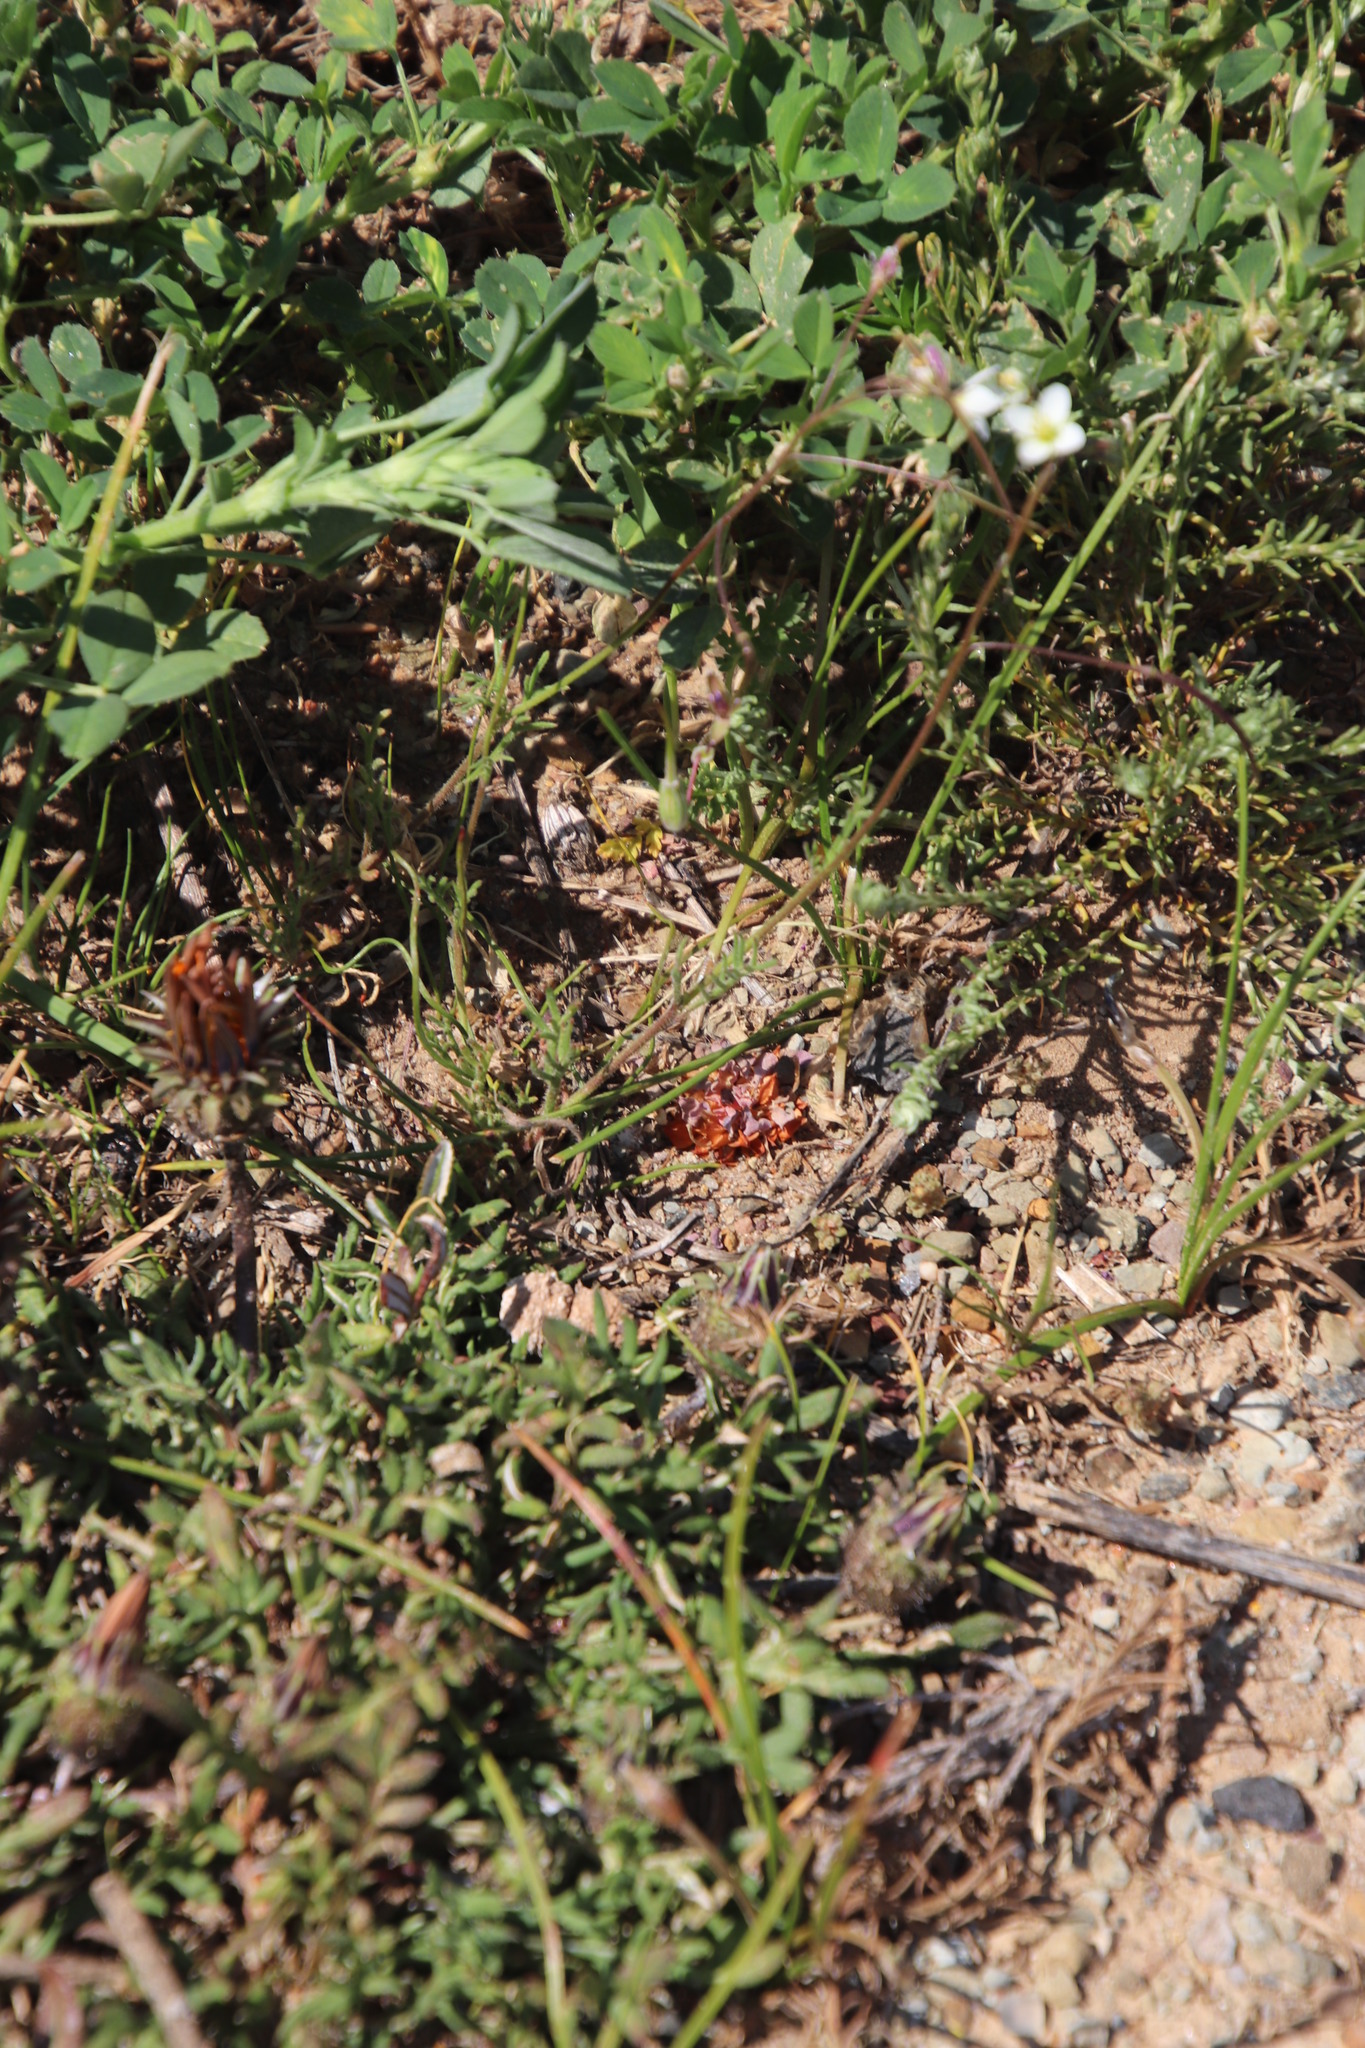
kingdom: Plantae
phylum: Tracheophyta
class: Magnoliopsida
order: Brassicales
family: Brassicaceae
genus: Heliophila
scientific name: Heliophila crithmifolia
